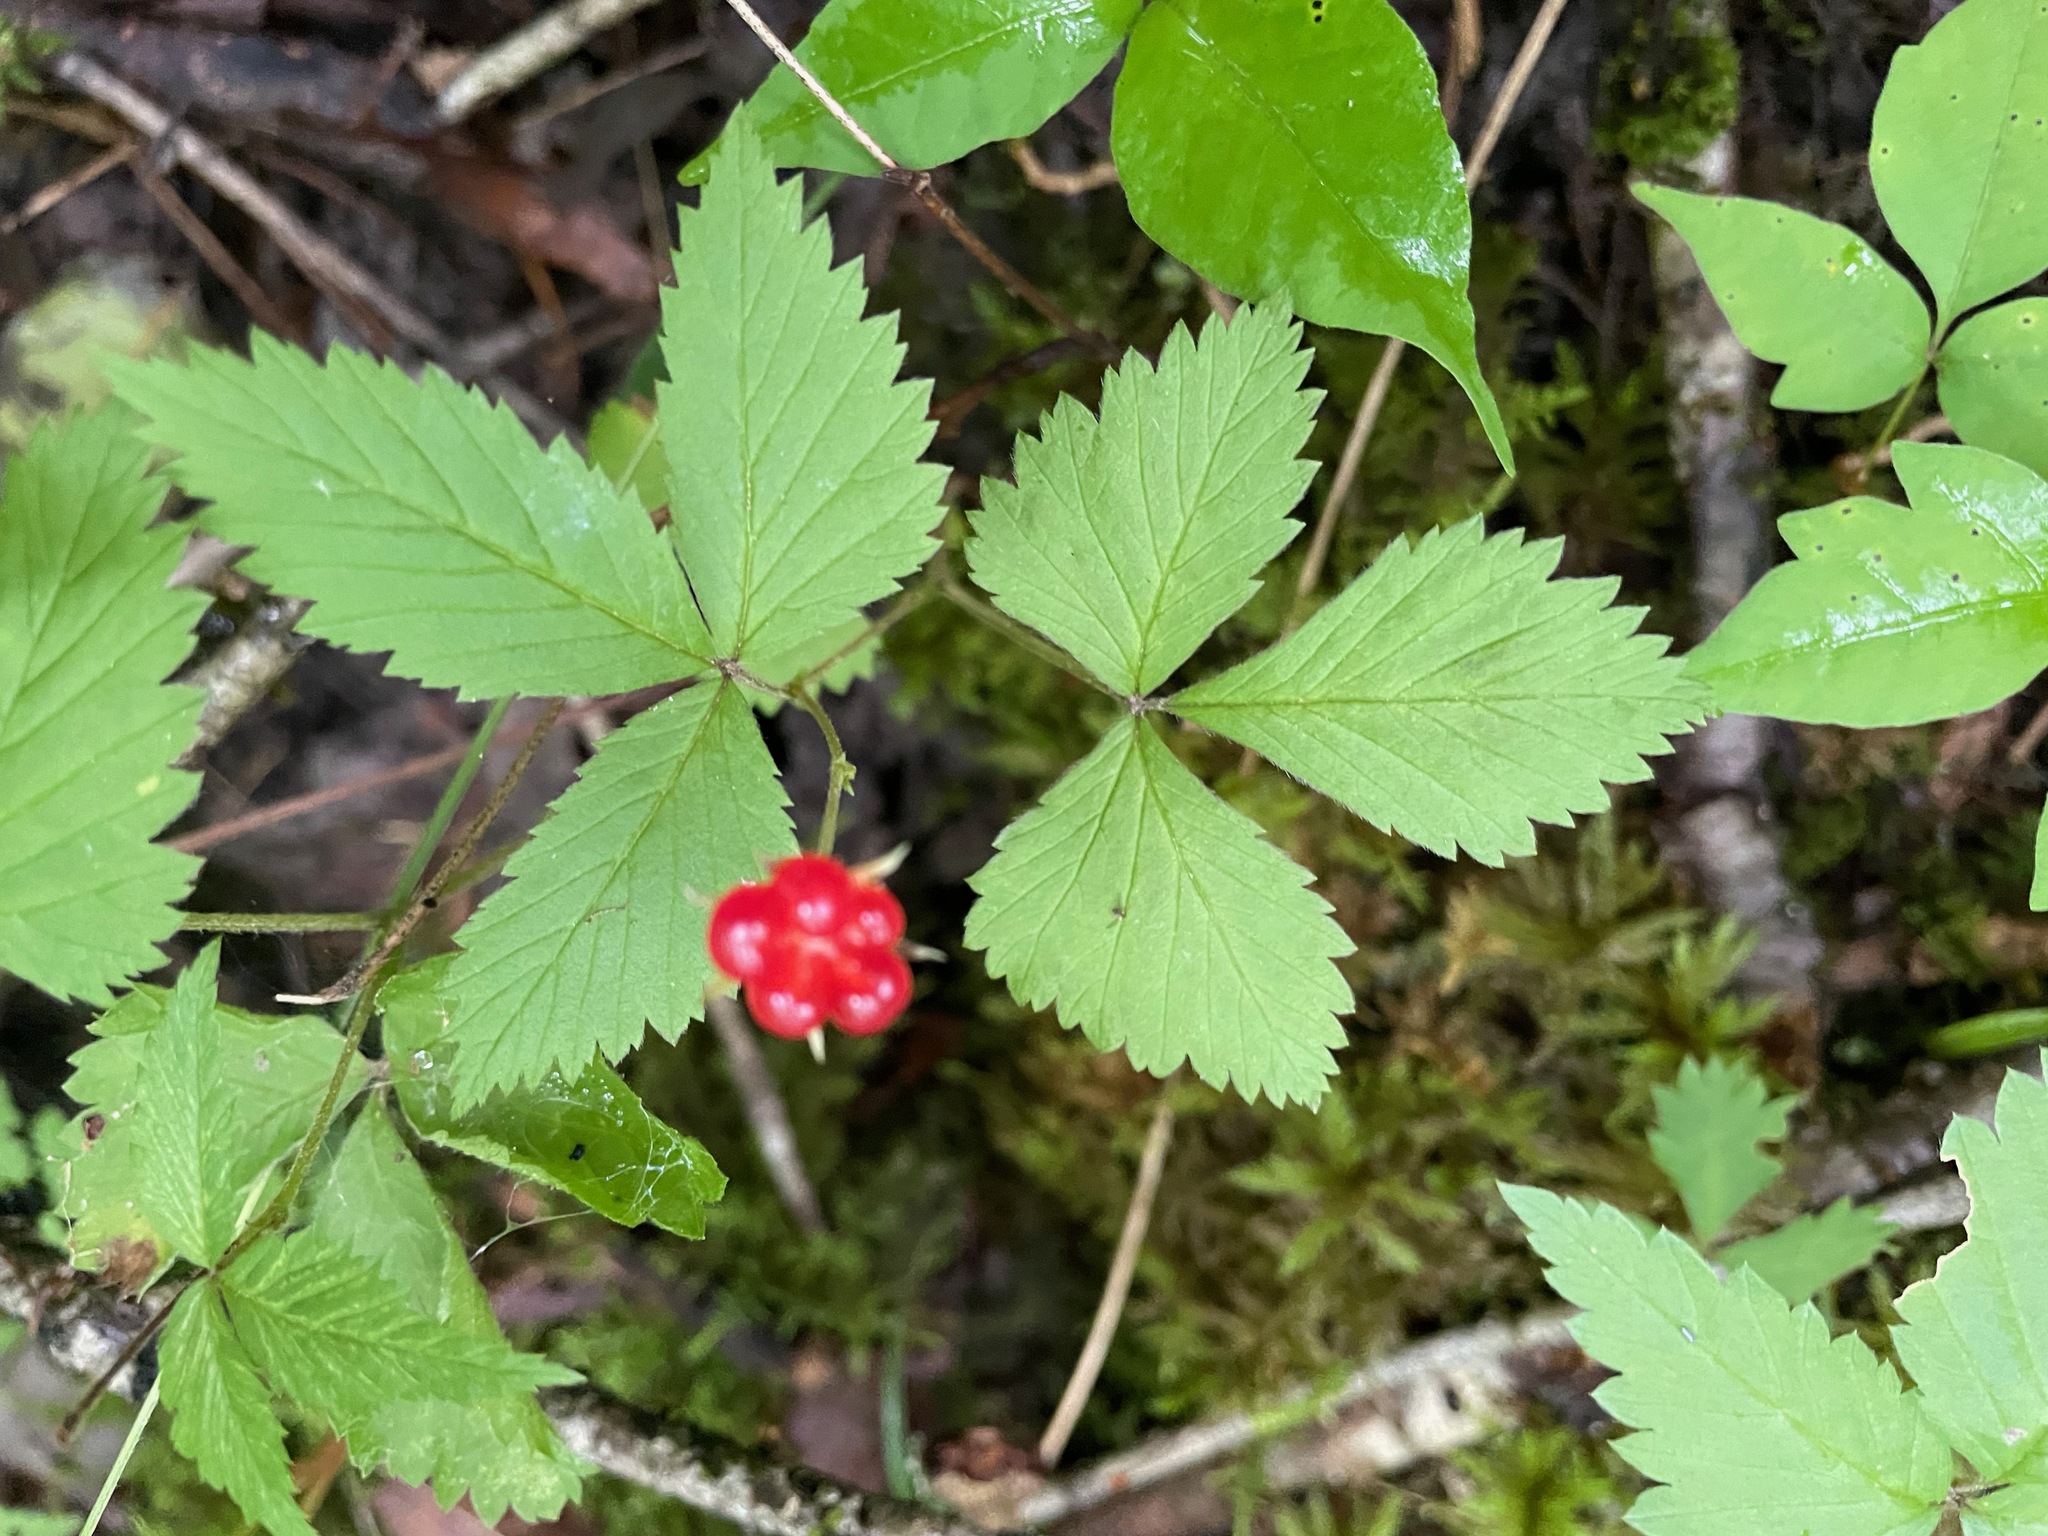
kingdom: Plantae
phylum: Tracheophyta
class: Magnoliopsida
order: Rosales
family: Rosaceae
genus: Rubus
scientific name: Rubus pubescens
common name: Dwarf raspberry
